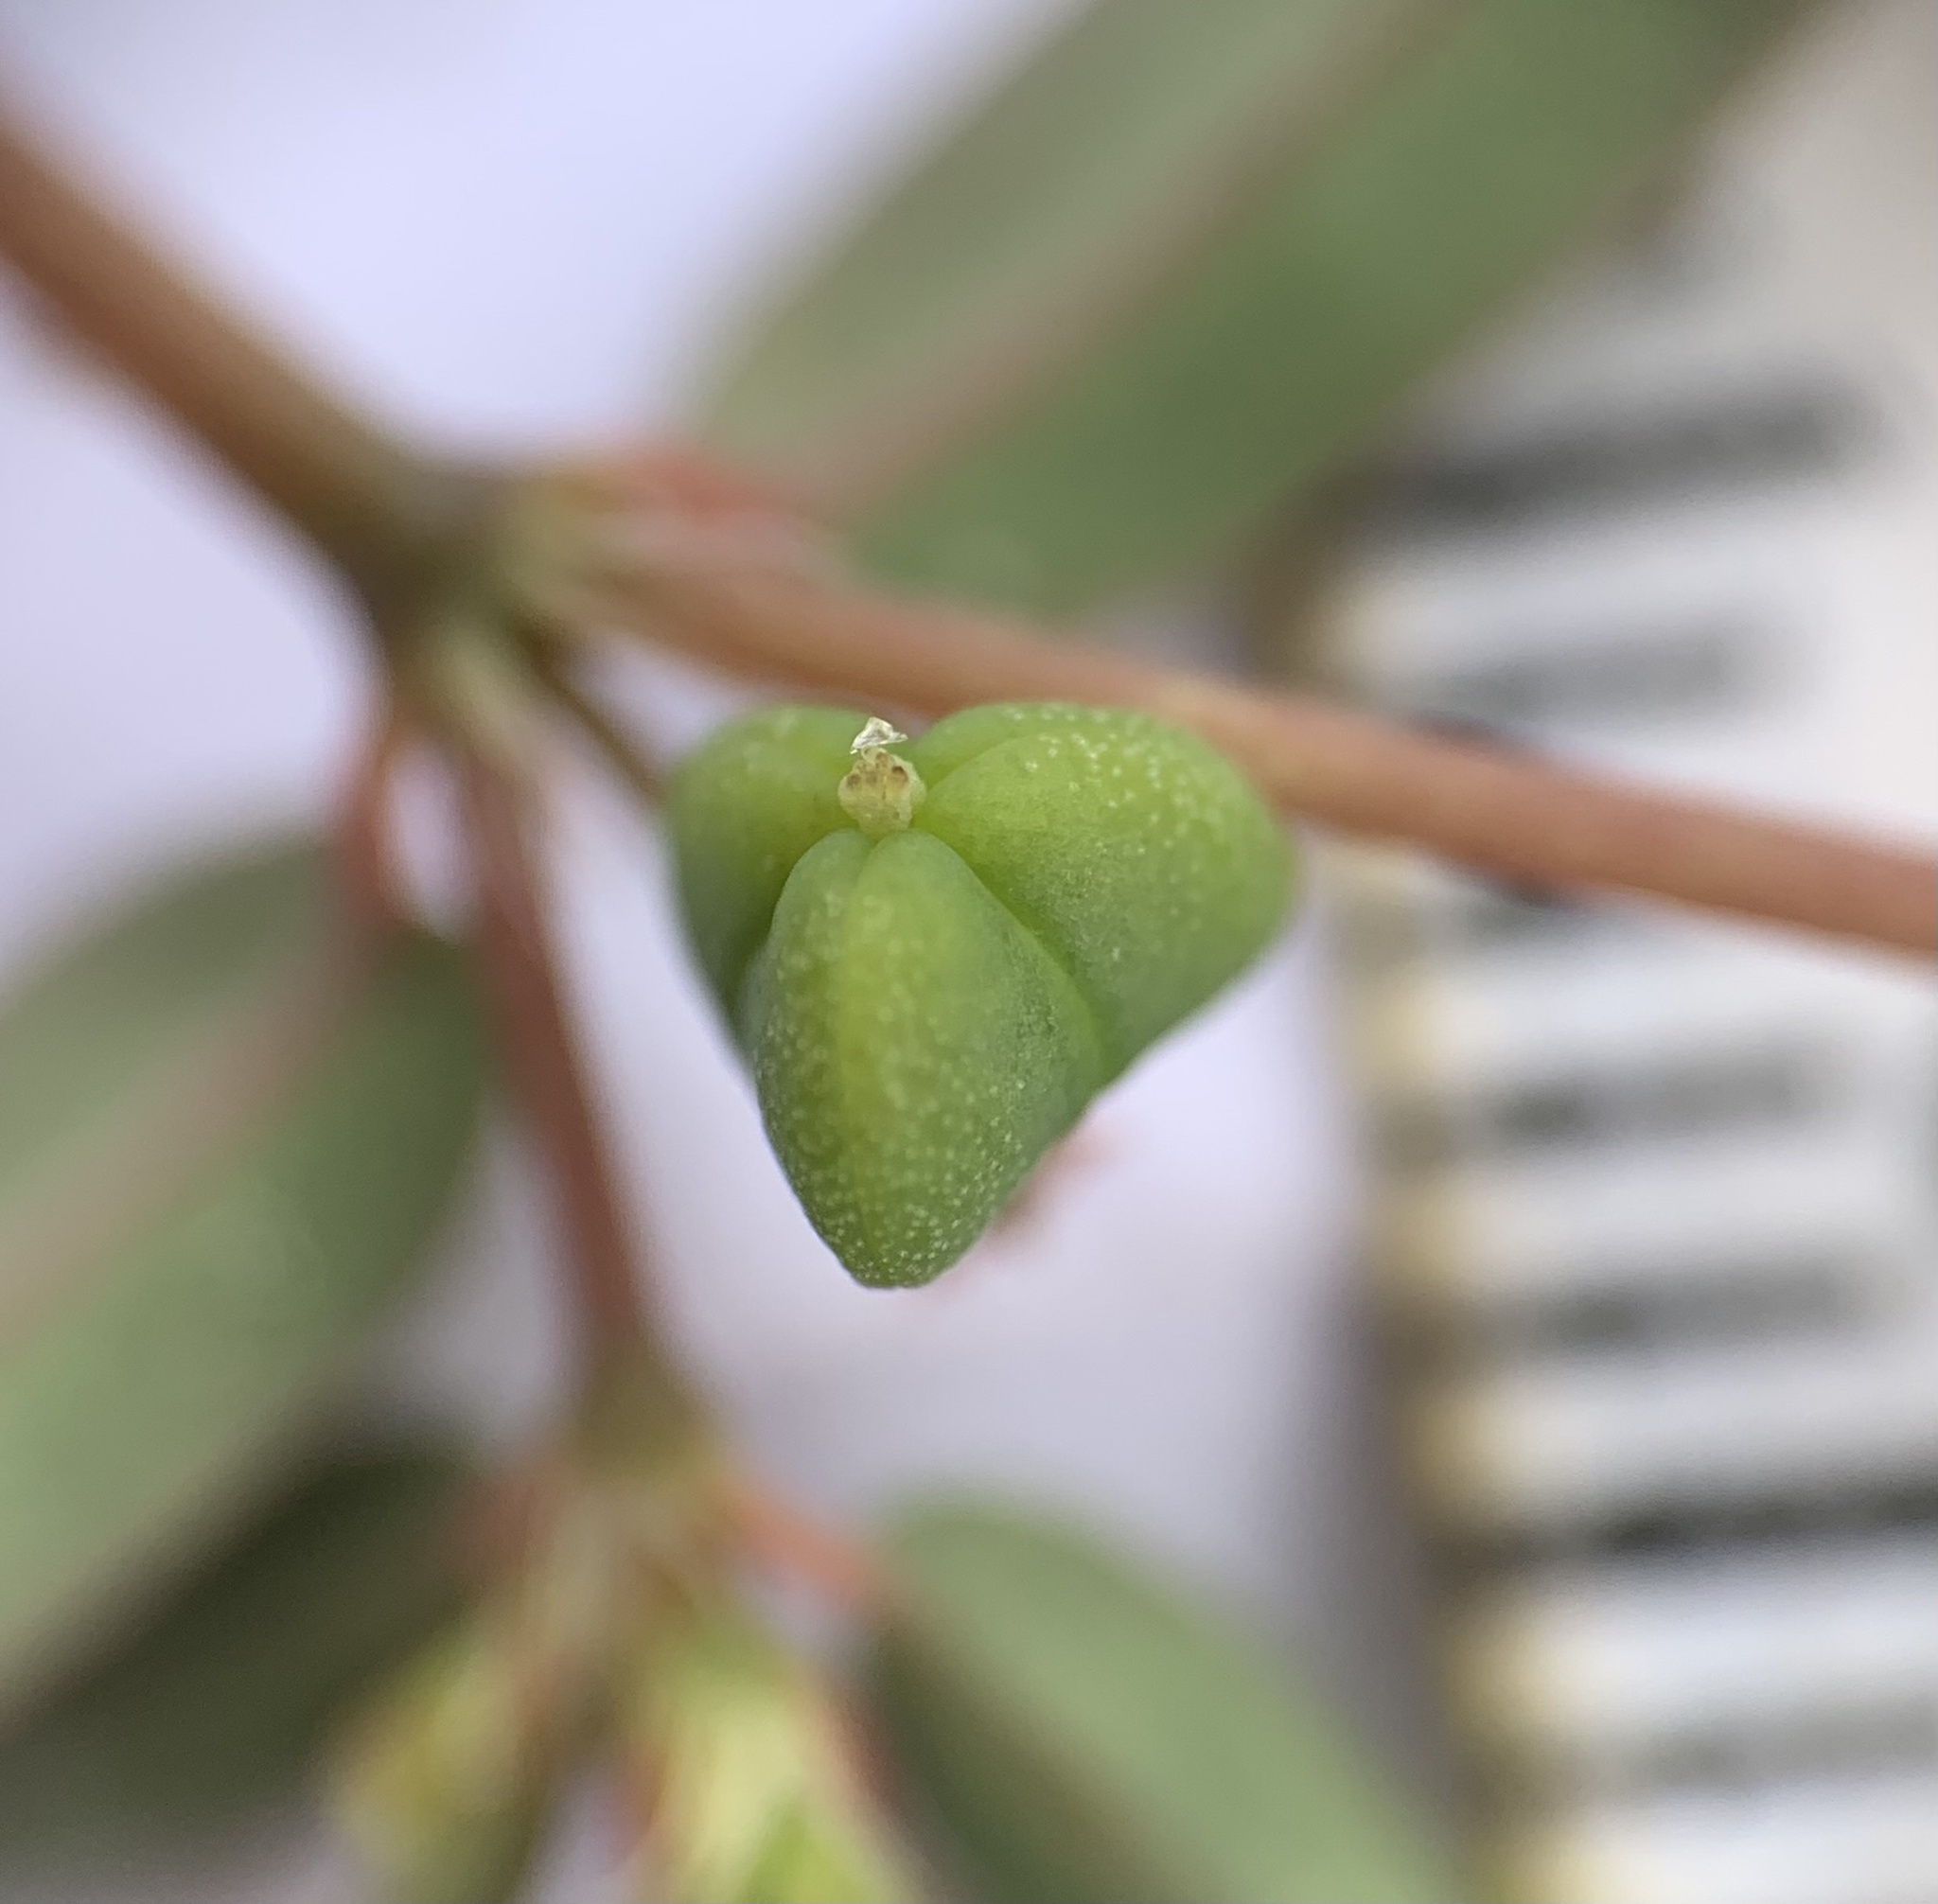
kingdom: Plantae
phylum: Tracheophyta
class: Magnoliopsida
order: Malpighiales
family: Euphorbiaceae
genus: Euphorbia
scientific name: Euphorbia cumulicola
